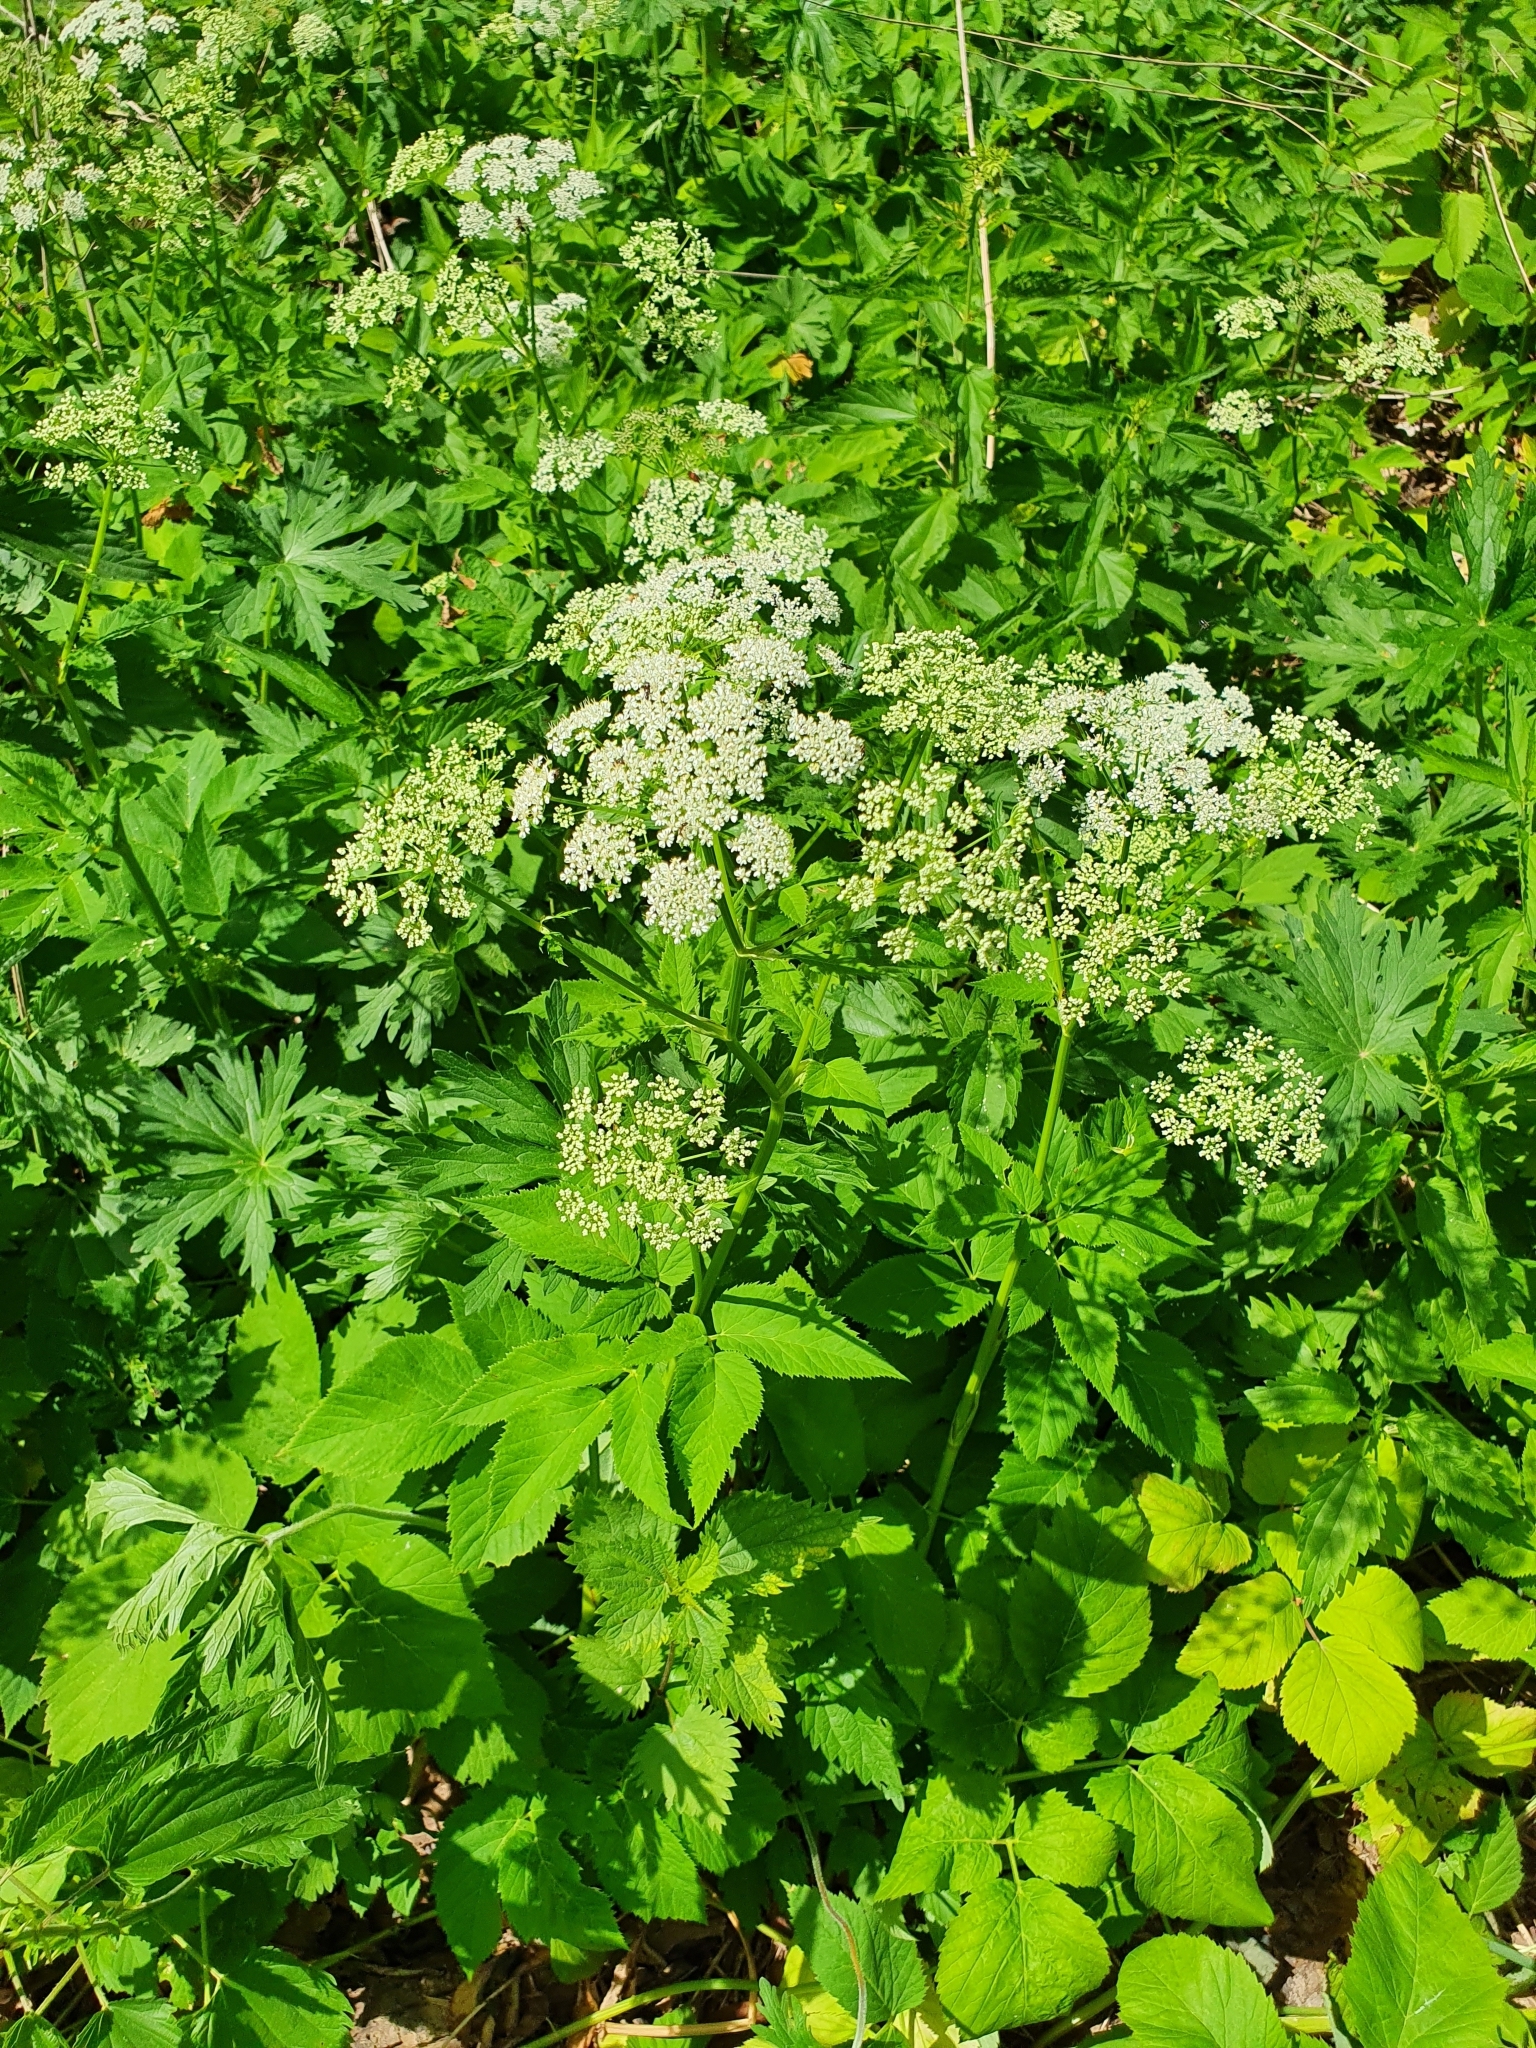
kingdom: Plantae
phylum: Tracheophyta
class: Magnoliopsida
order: Apiales
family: Apiaceae
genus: Aegopodium
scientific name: Aegopodium podagraria
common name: Ground-elder
